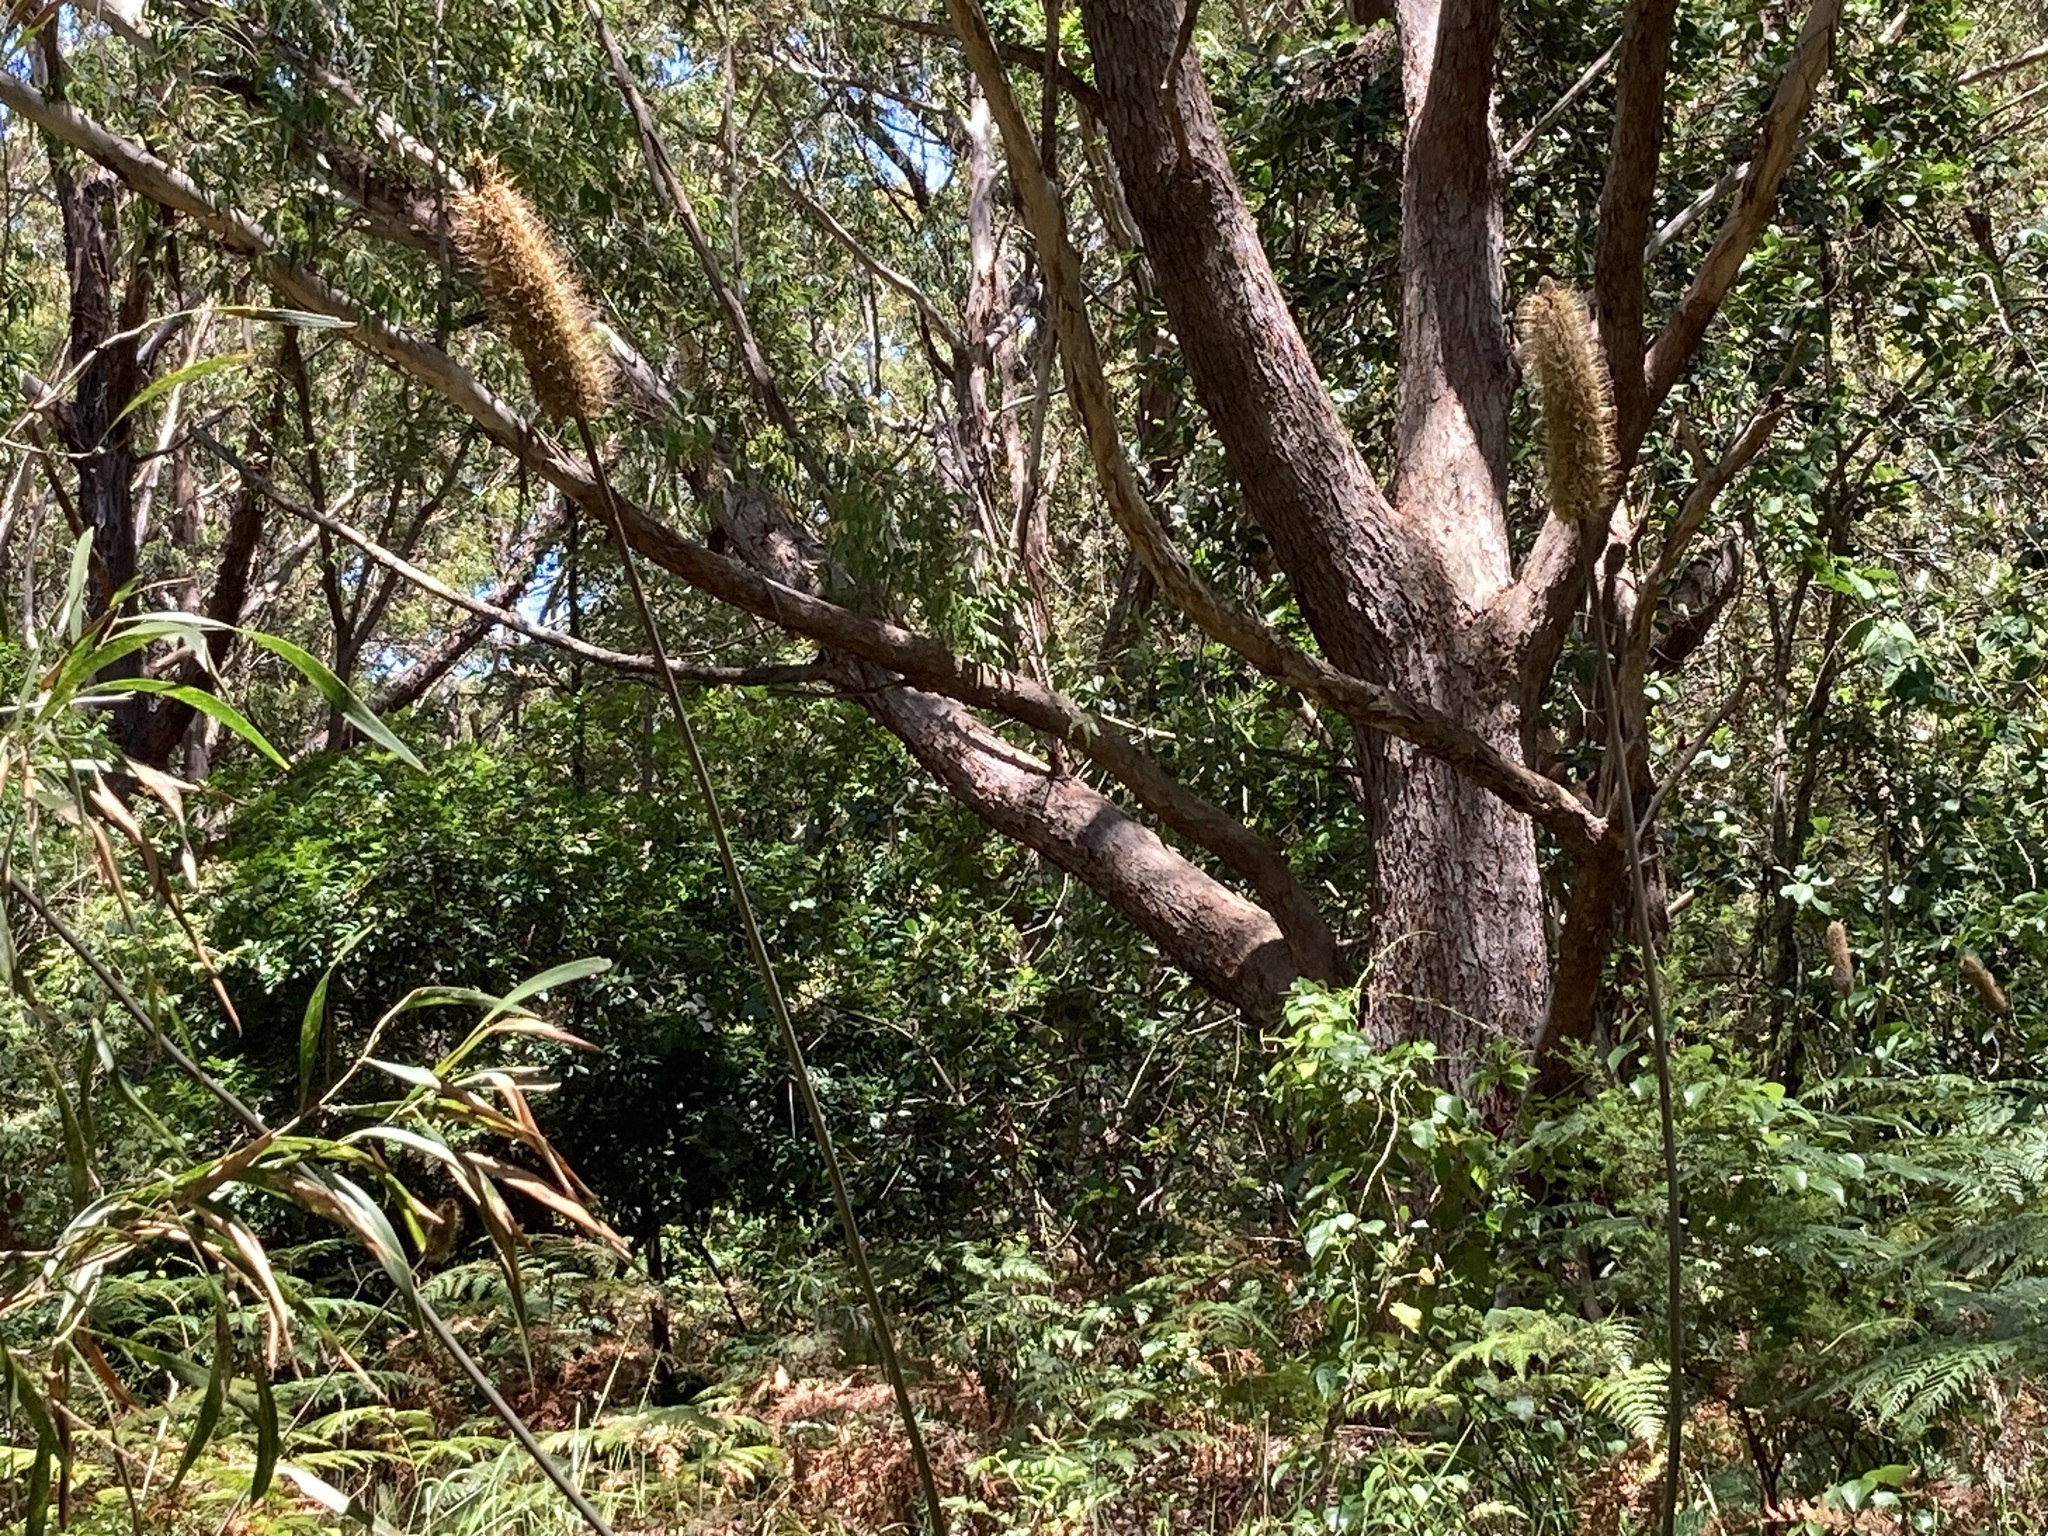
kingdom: Plantae
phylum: Tracheophyta
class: Liliopsida
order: Asparagales
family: Asphodelaceae
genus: Xanthorrhoea
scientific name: Xanthorrhoea macronema
